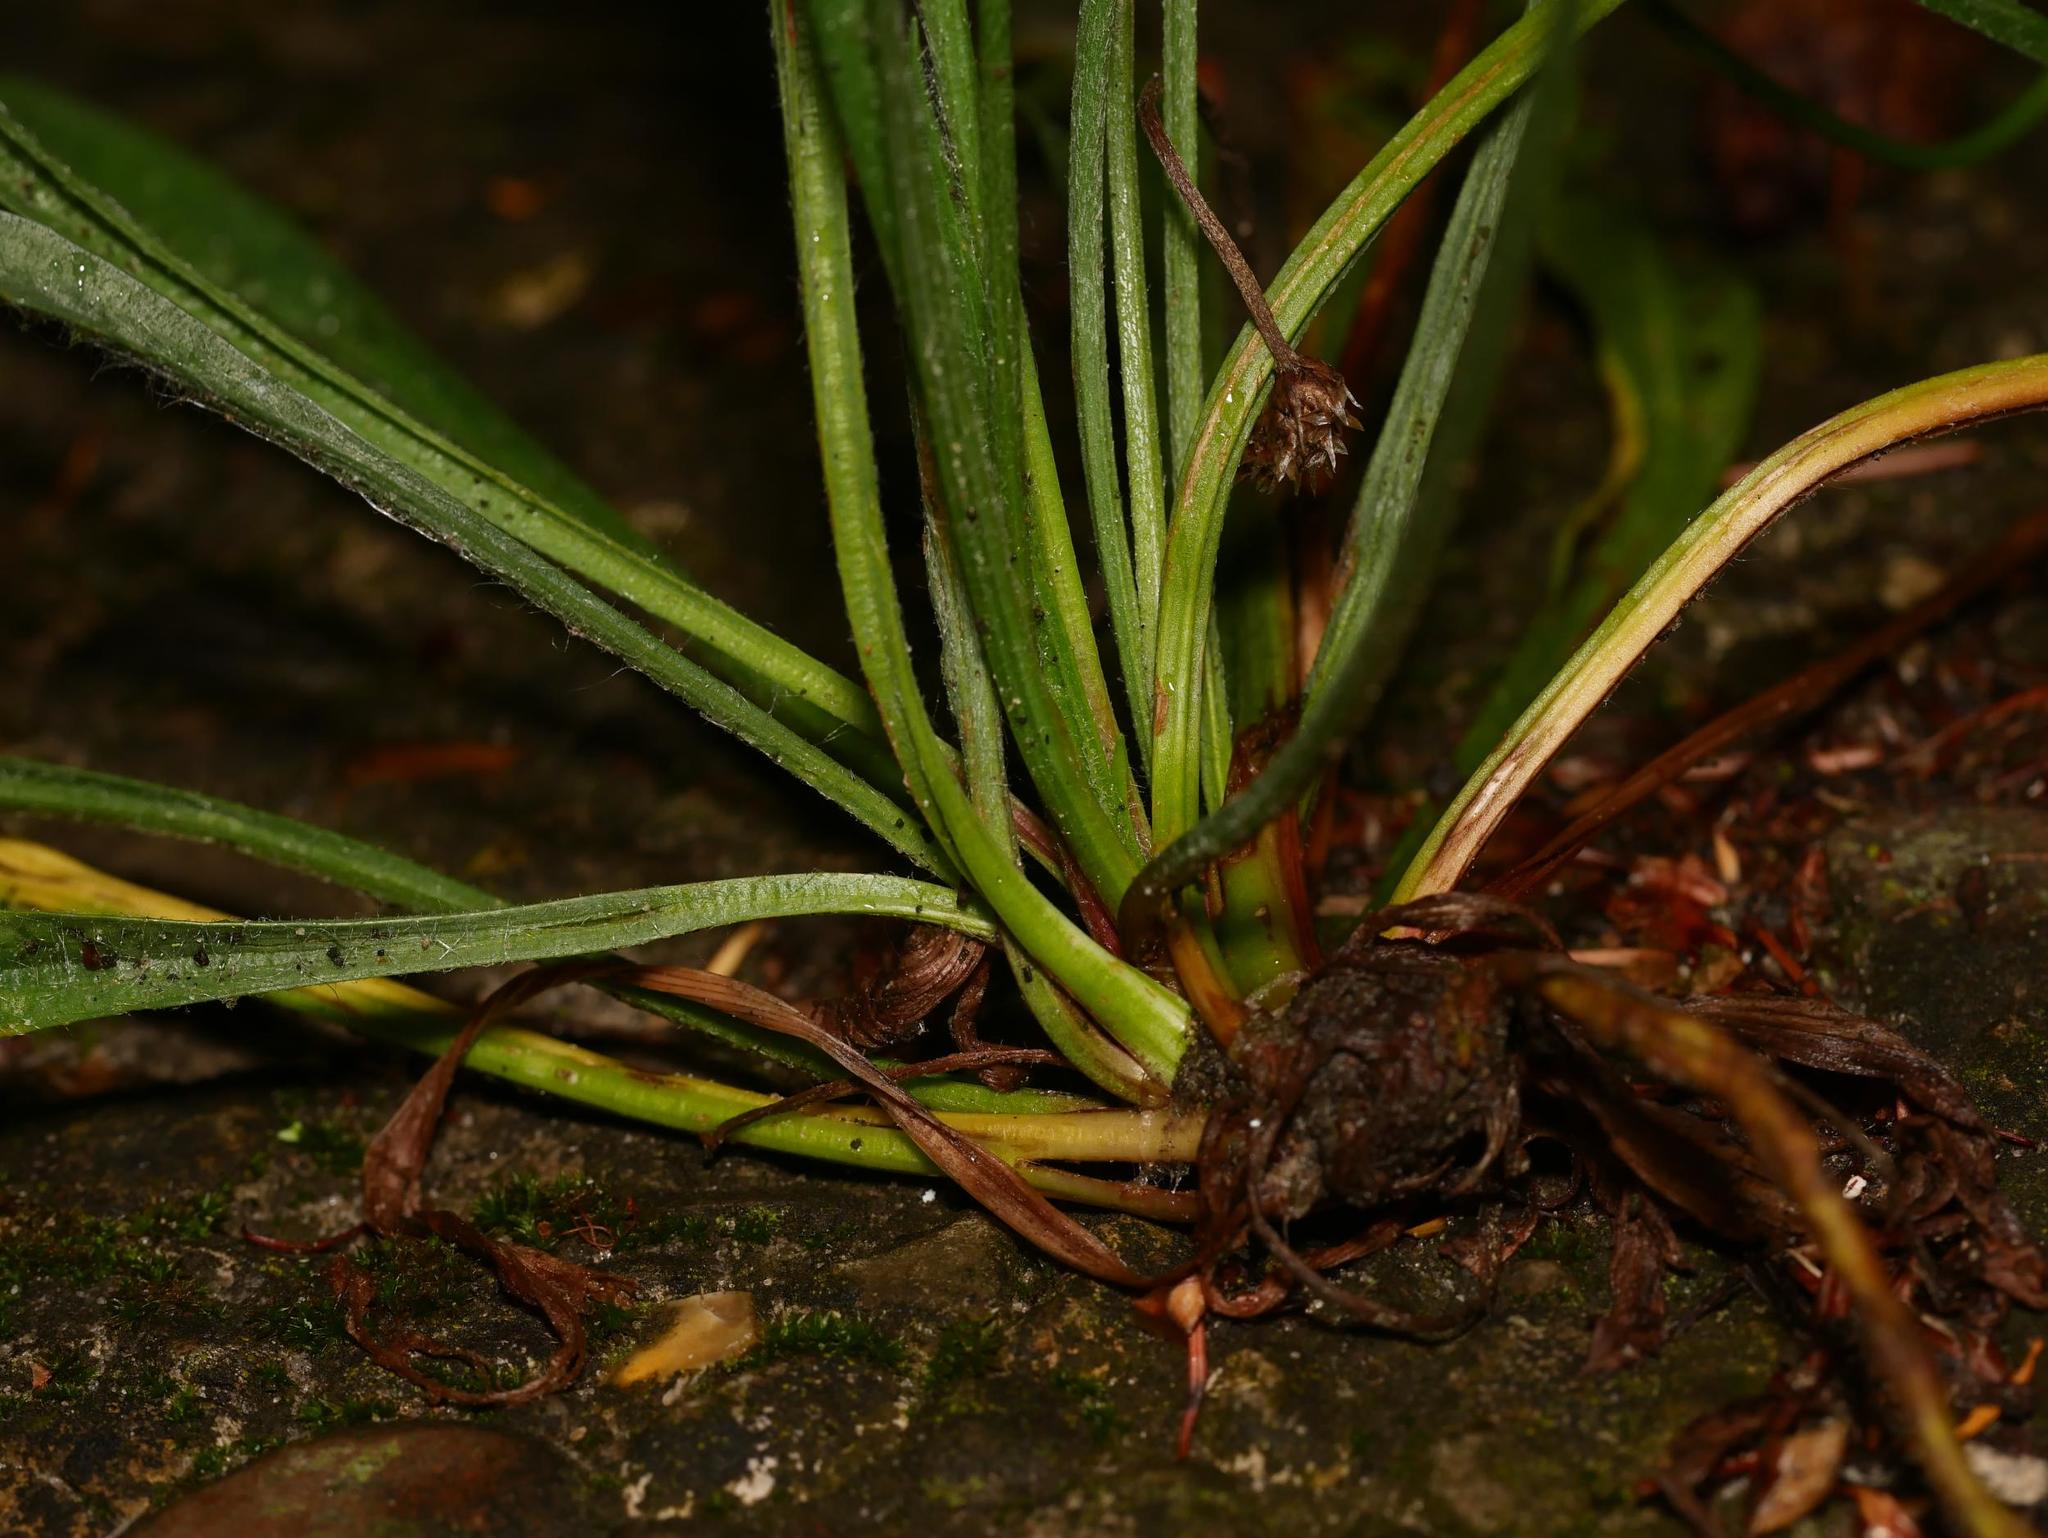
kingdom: Plantae
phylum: Tracheophyta
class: Magnoliopsida
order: Lamiales
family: Plantaginaceae
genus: Plantago
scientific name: Plantago lanceolata
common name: Ribwort plantain
